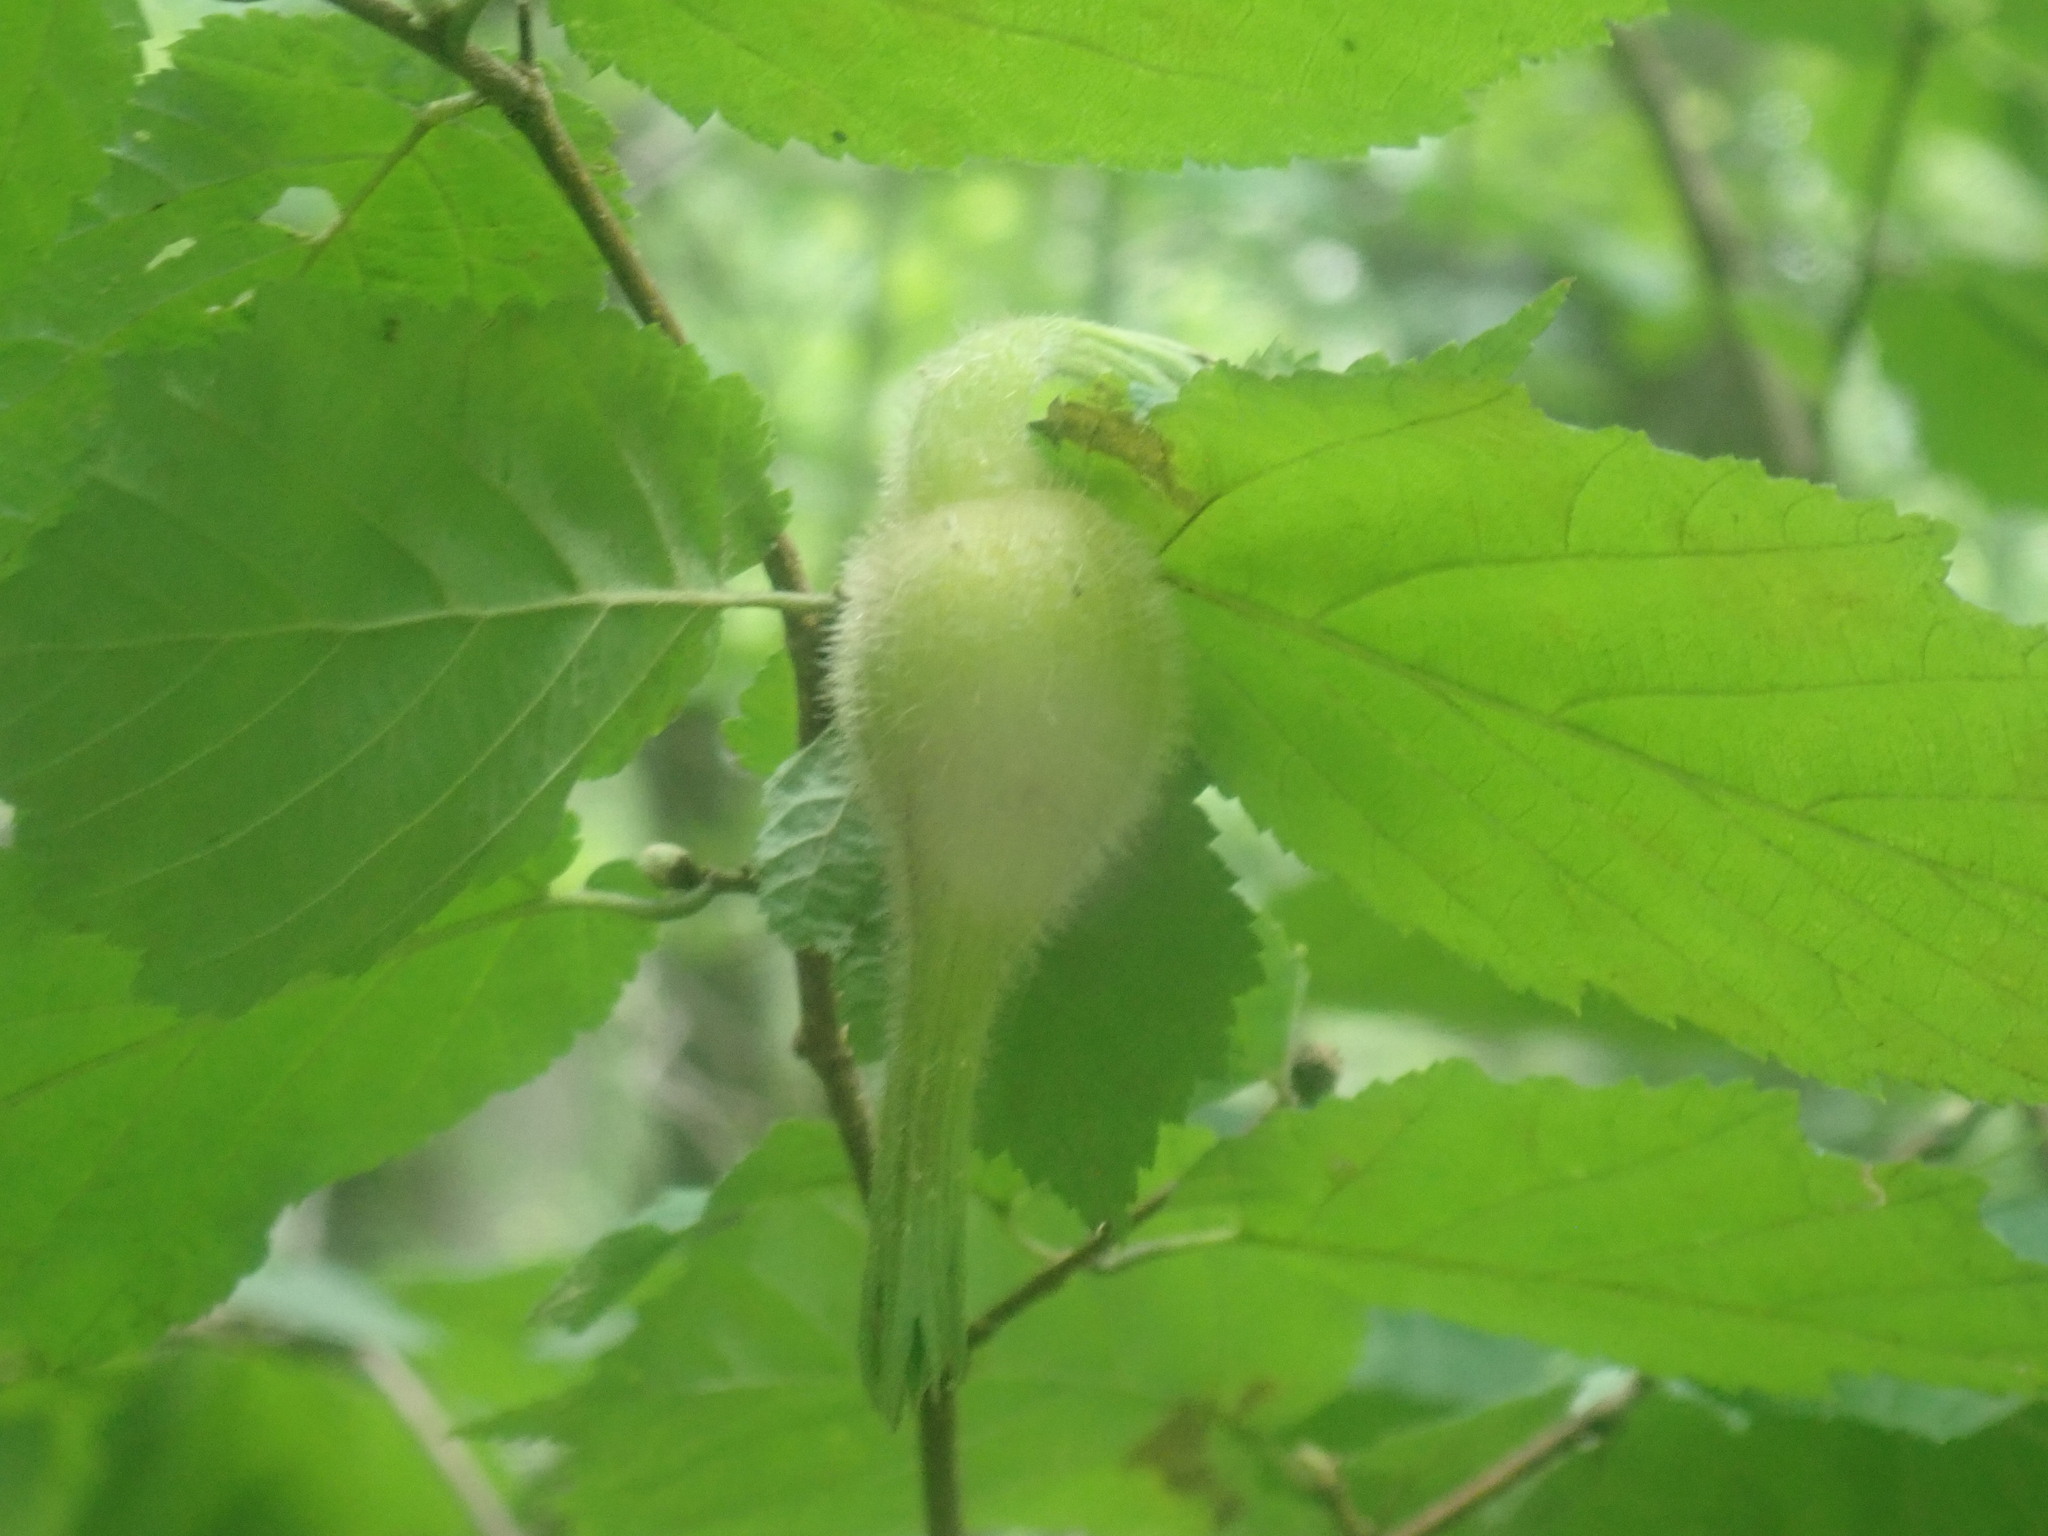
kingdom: Plantae
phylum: Tracheophyta
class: Magnoliopsida
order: Fagales
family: Betulaceae
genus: Corylus
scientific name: Corylus cornuta
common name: Beaked hazel
